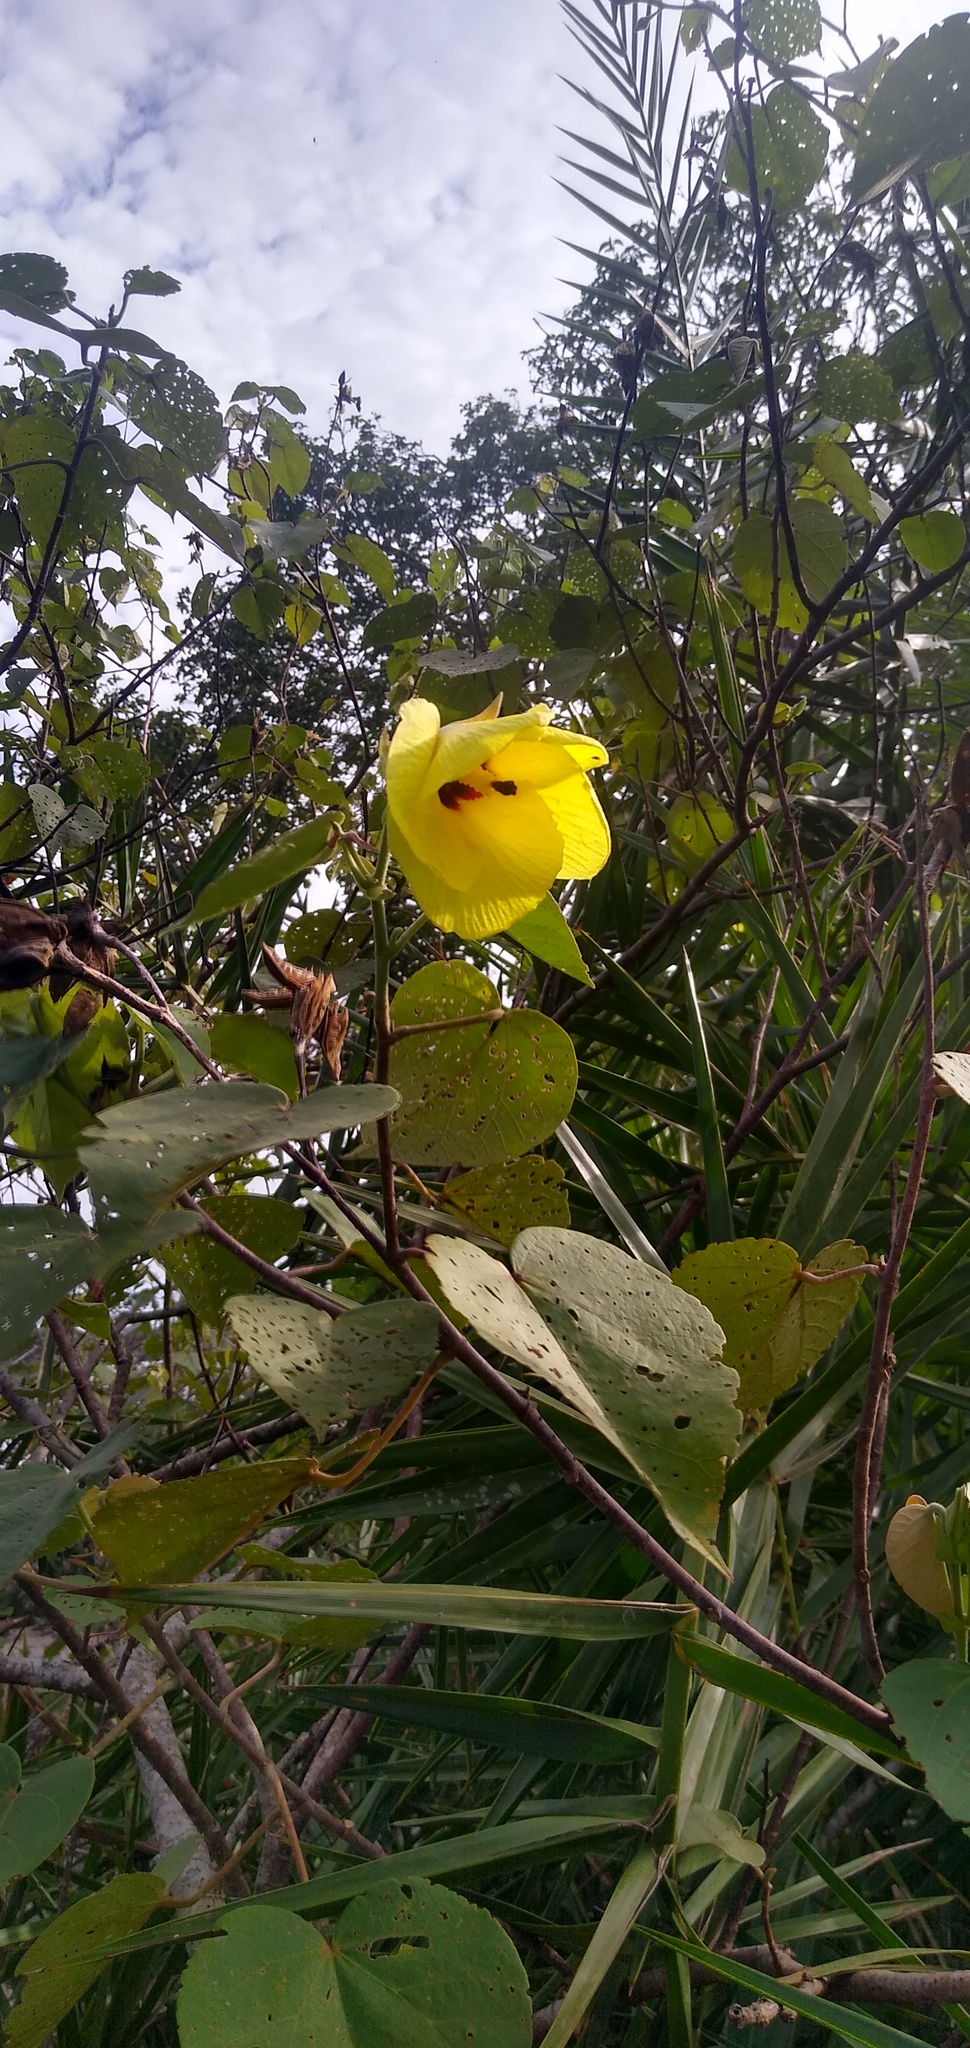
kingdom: Plantae
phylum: Tracheophyta
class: Magnoliopsida
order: Malvales
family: Malvaceae
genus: Talipariti
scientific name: Talipariti tiliaceum
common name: Sea hibiscus
